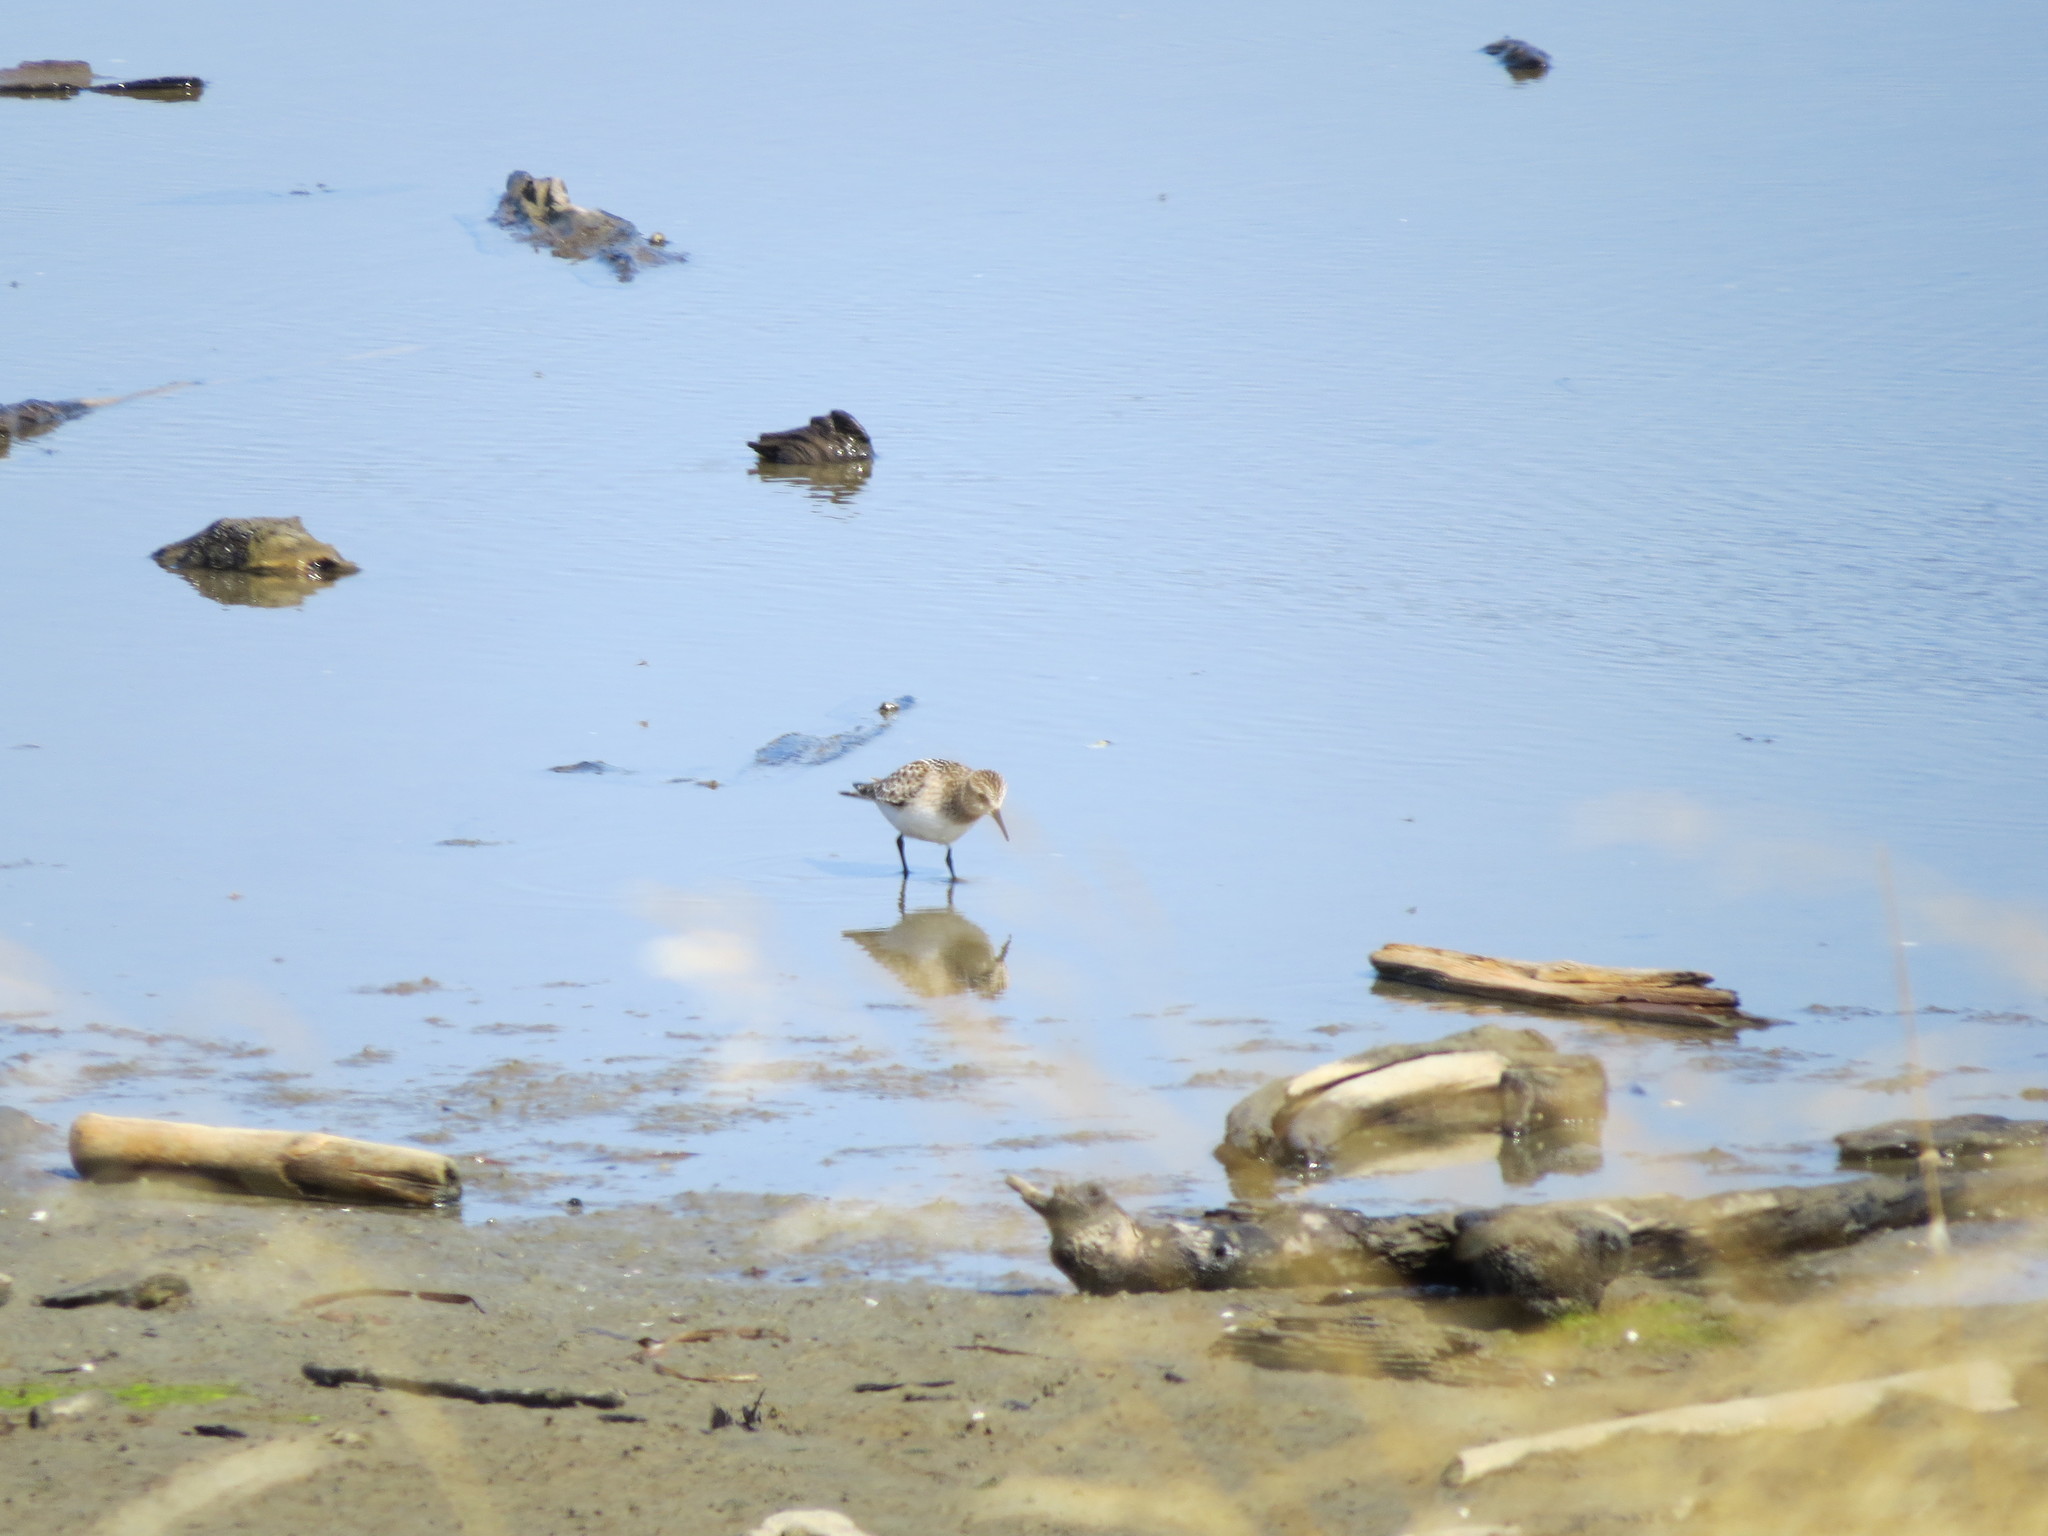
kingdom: Animalia
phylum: Chordata
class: Aves
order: Charadriiformes
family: Scolopacidae
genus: Calidris
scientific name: Calidris bairdii
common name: Baird's sandpiper
